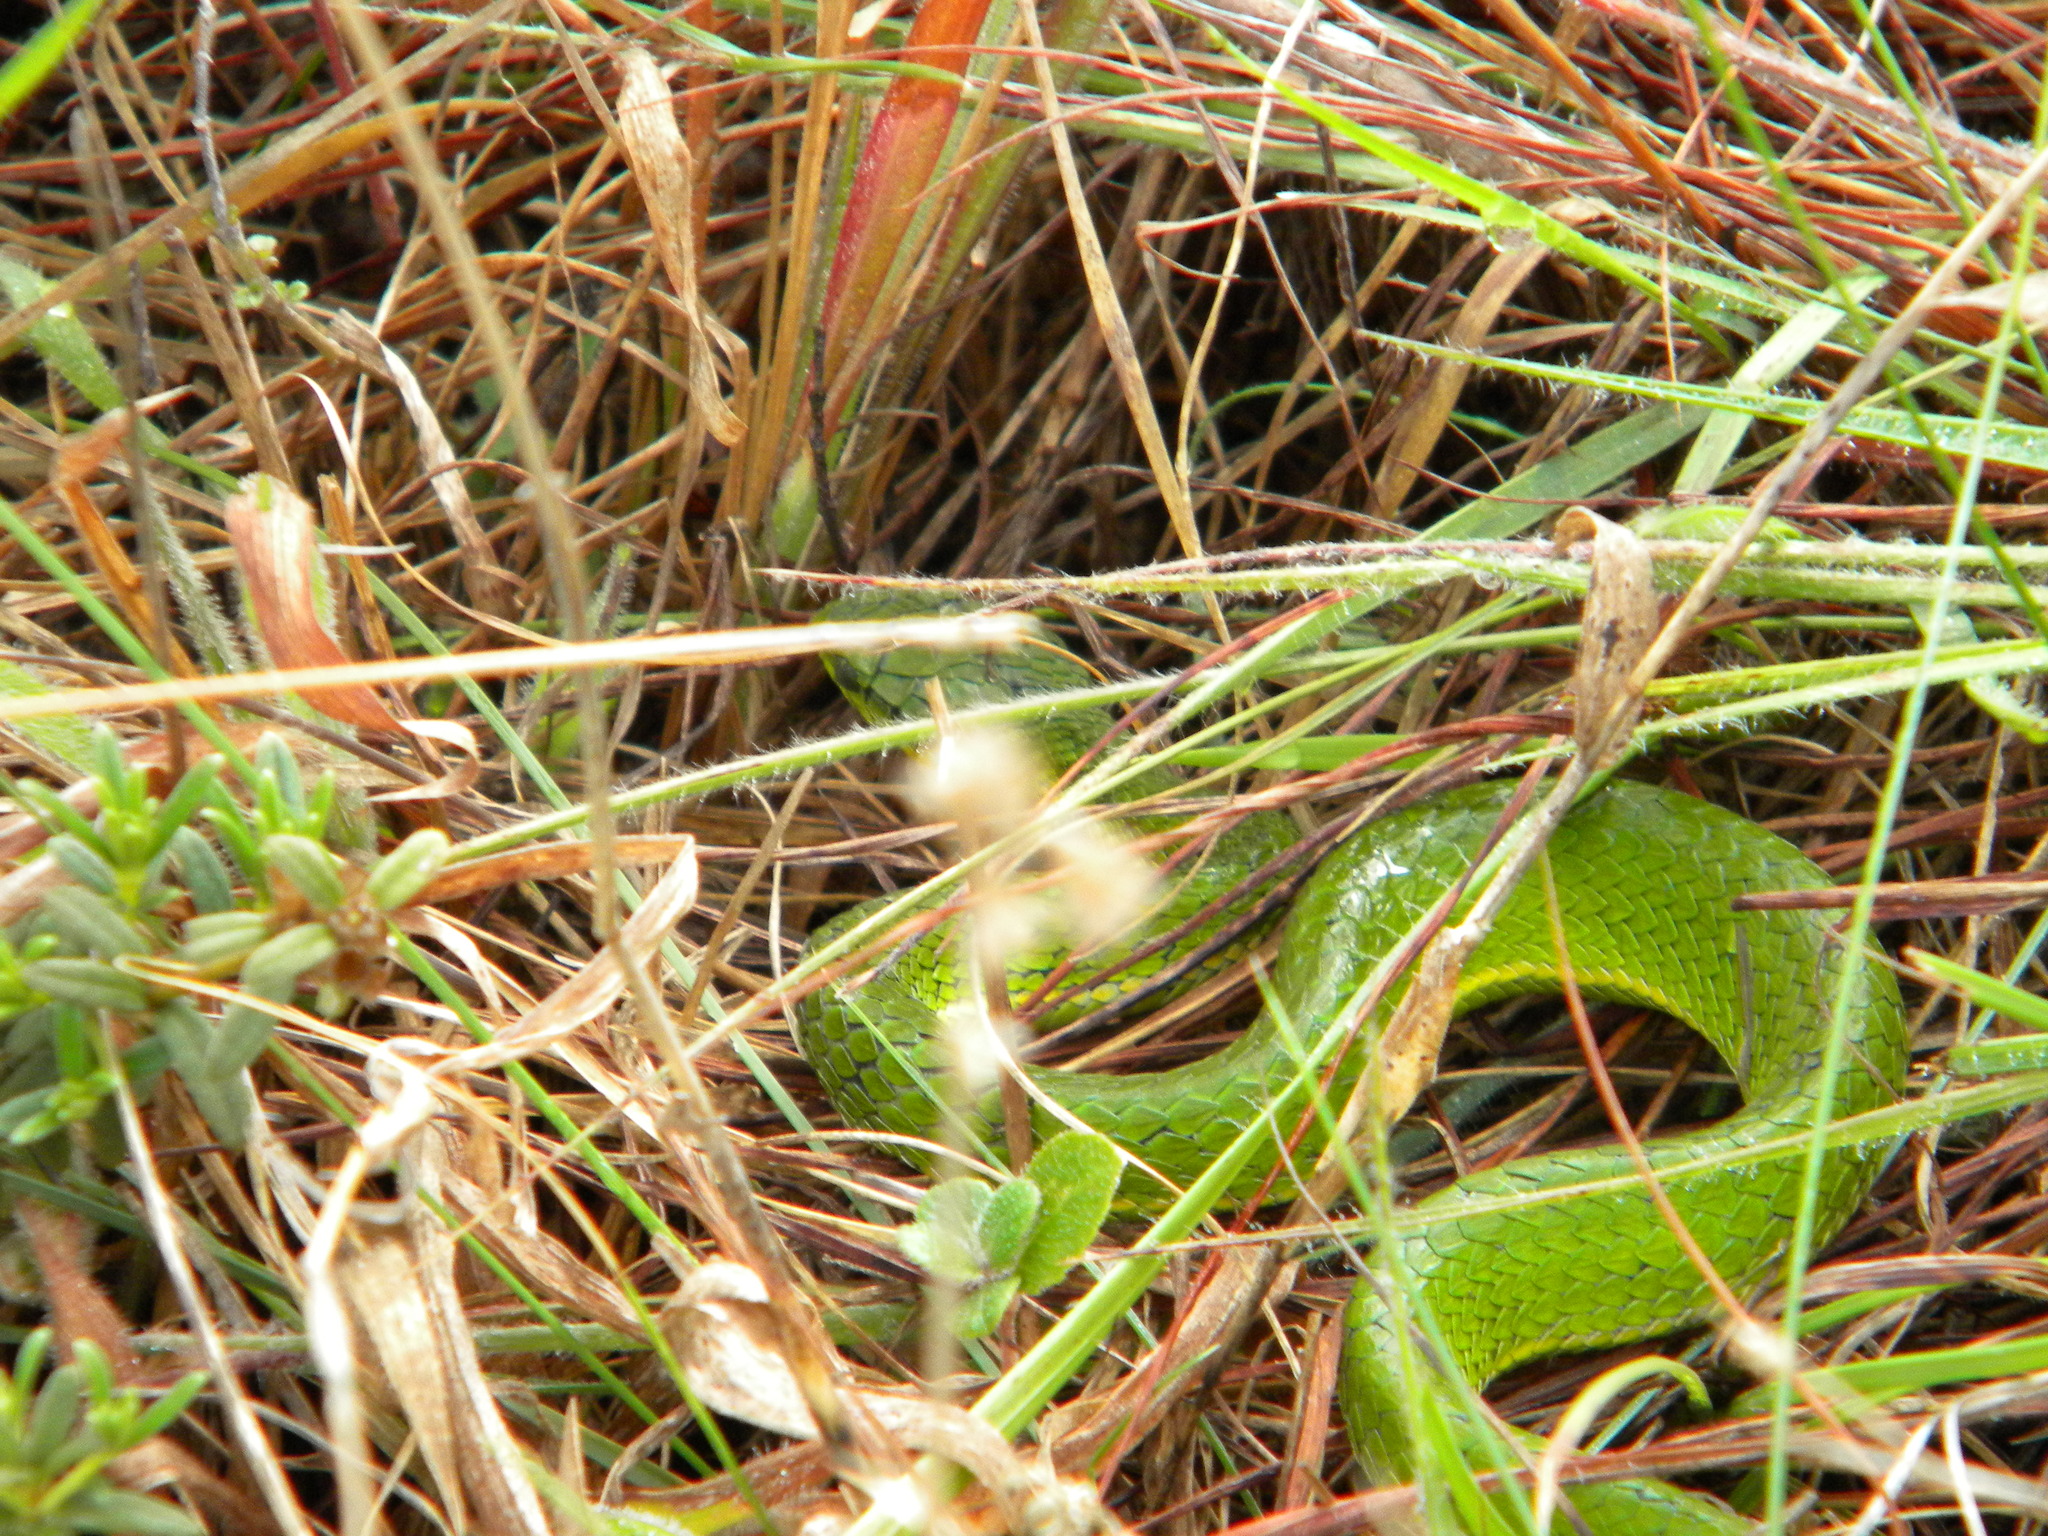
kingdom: Animalia
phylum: Chordata
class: Squamata
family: Viperidae
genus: Craspedocephalus
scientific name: Craspedocephalus macrolepis
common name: Large-scaled pit viper
